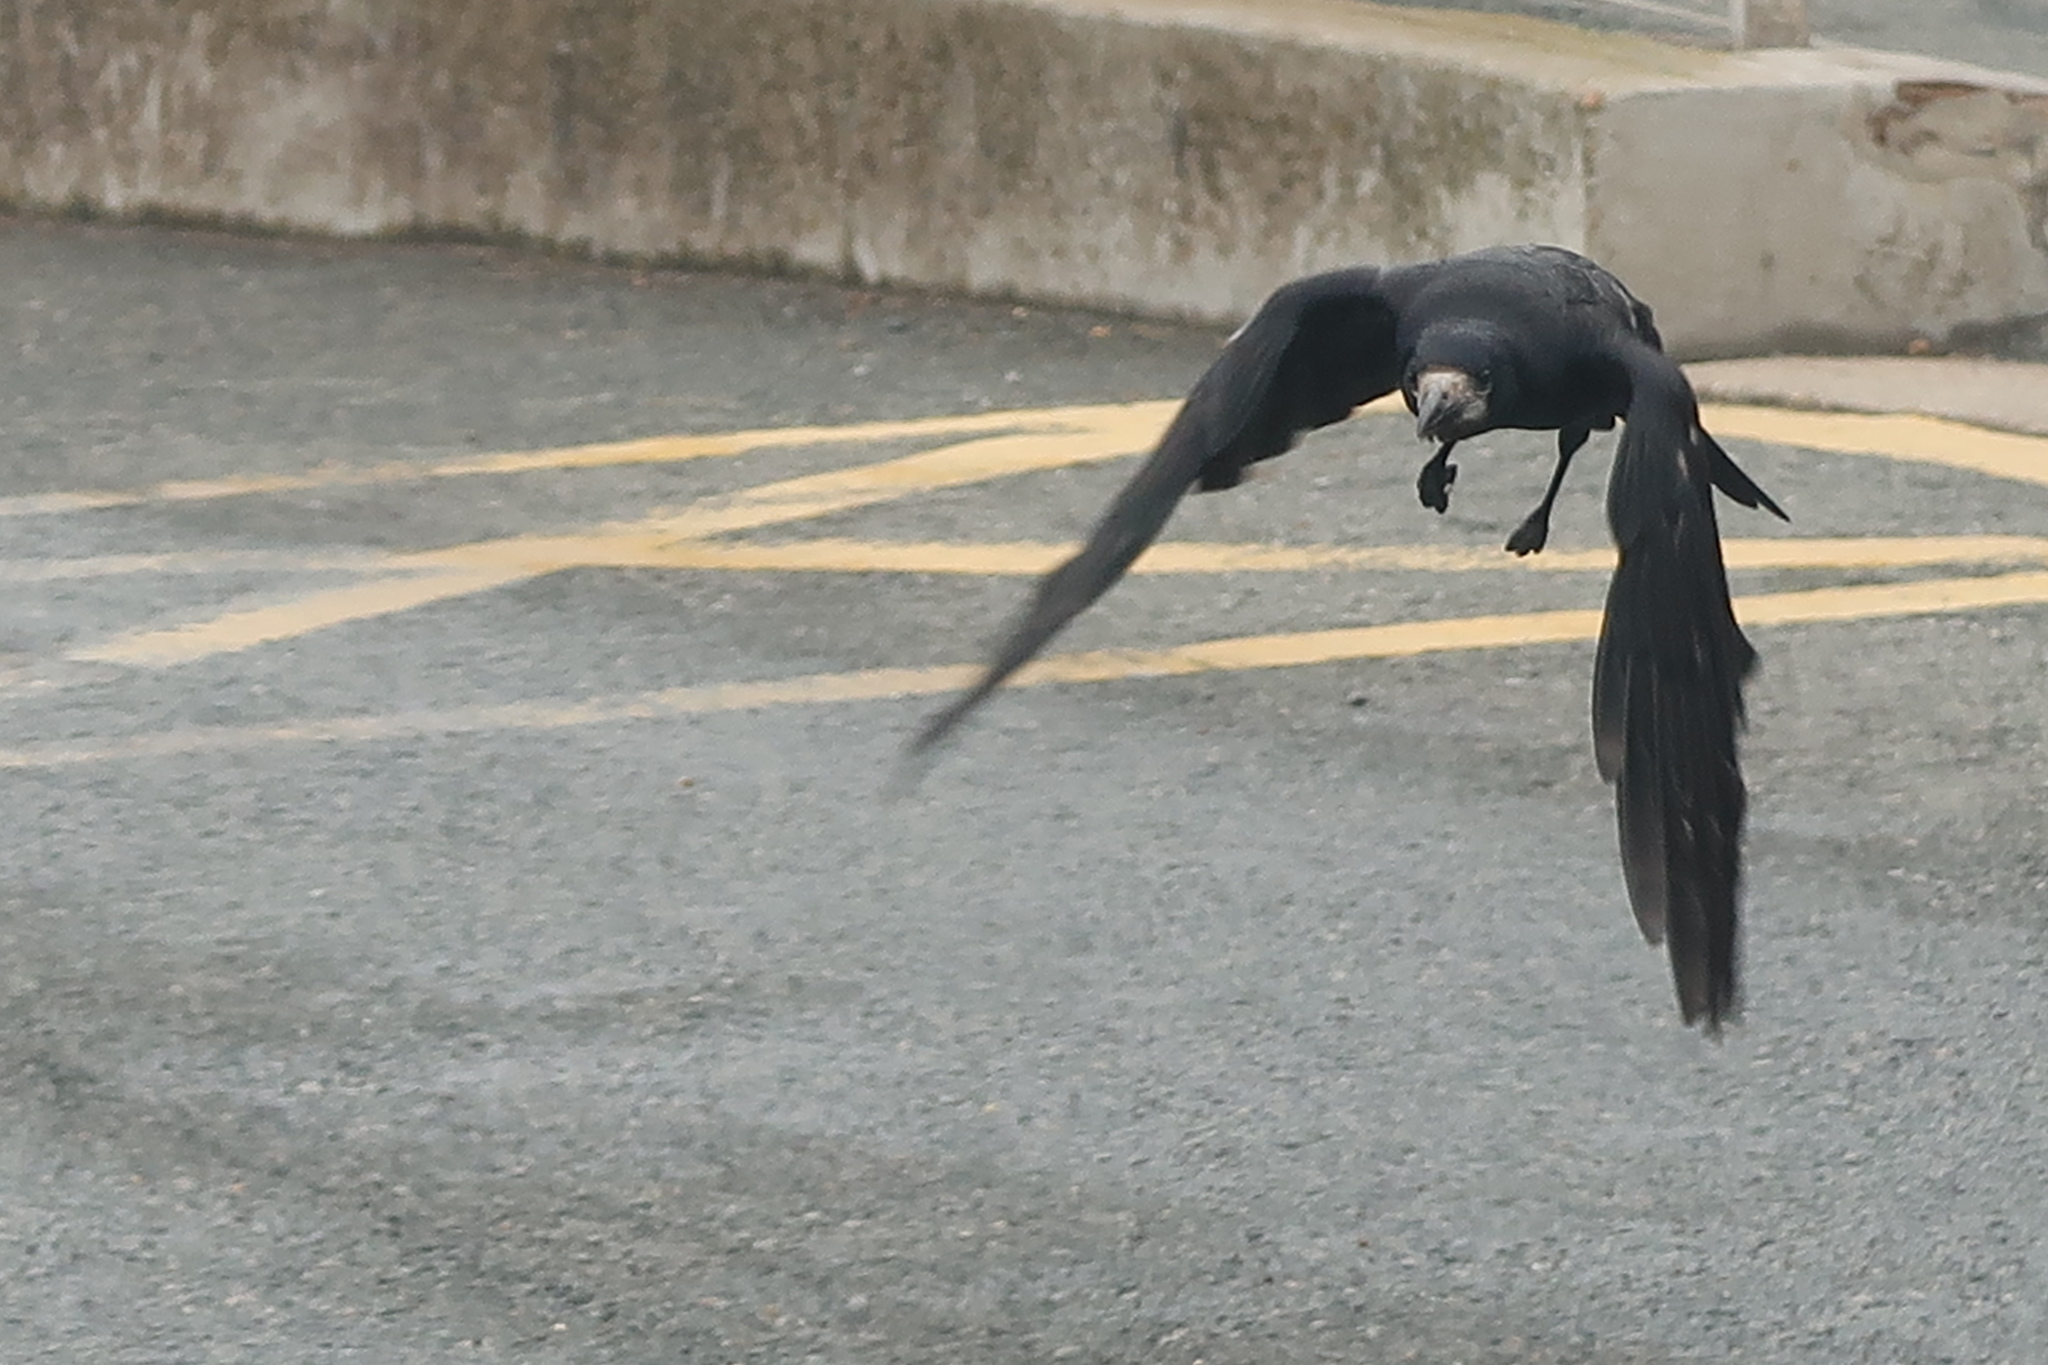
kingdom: Animalia
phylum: Chordata
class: Aves
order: Passeriformes
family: Corvidae
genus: Corvus
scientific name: Corvus frugilegus
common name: Rook
